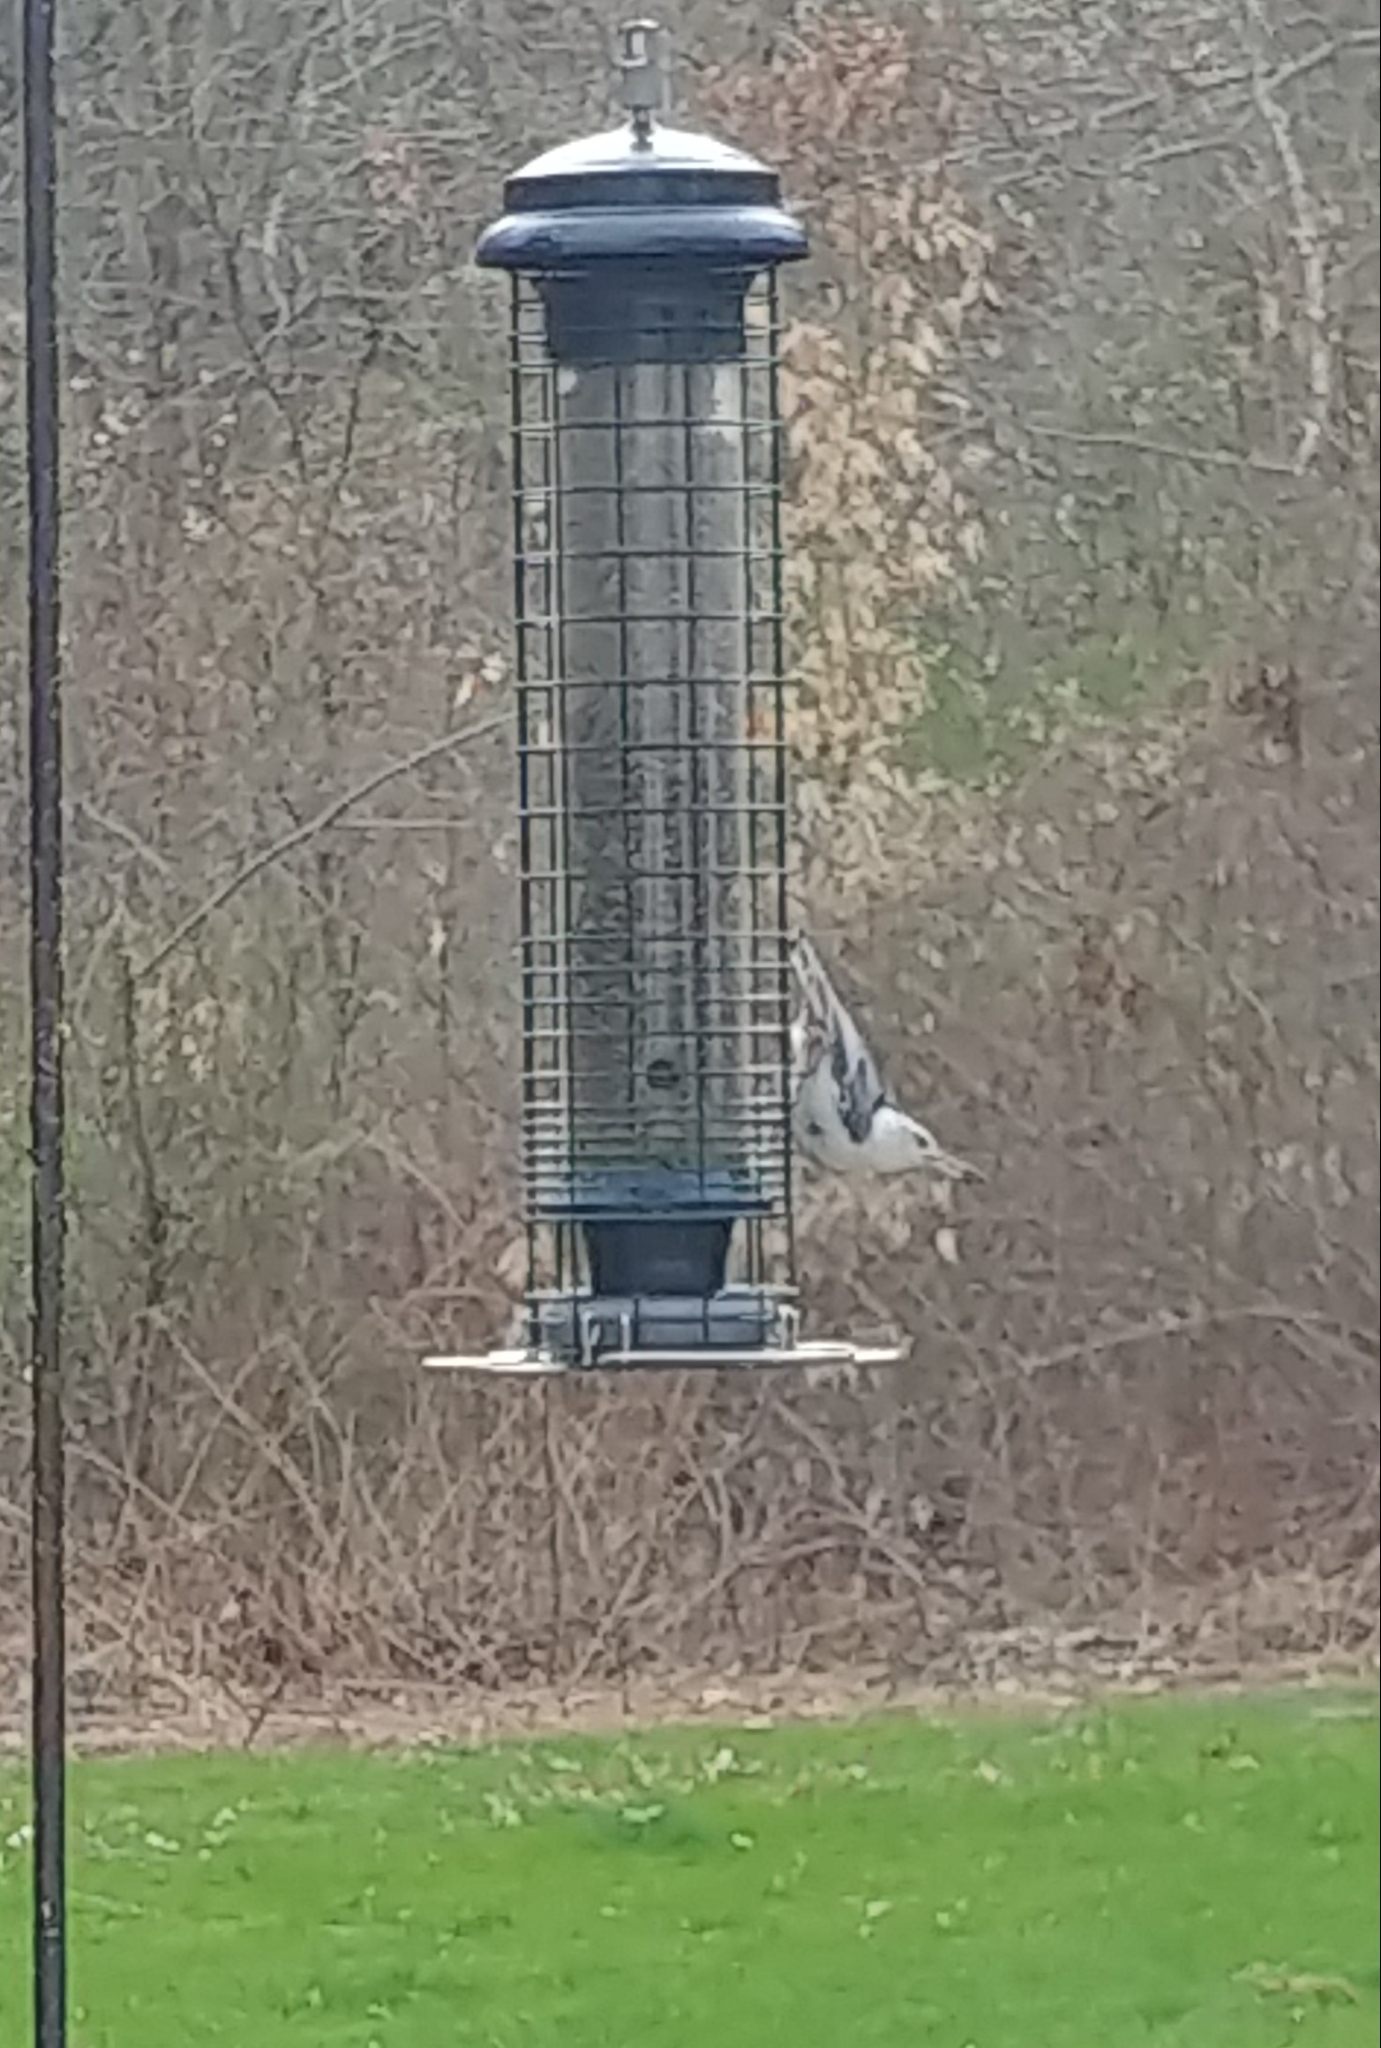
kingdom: Animalia
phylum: Chordata
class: Aves
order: Passeriformes
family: Sittidae
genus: Sitta
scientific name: Sitta carolinensis
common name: White-breasted nuthatch
